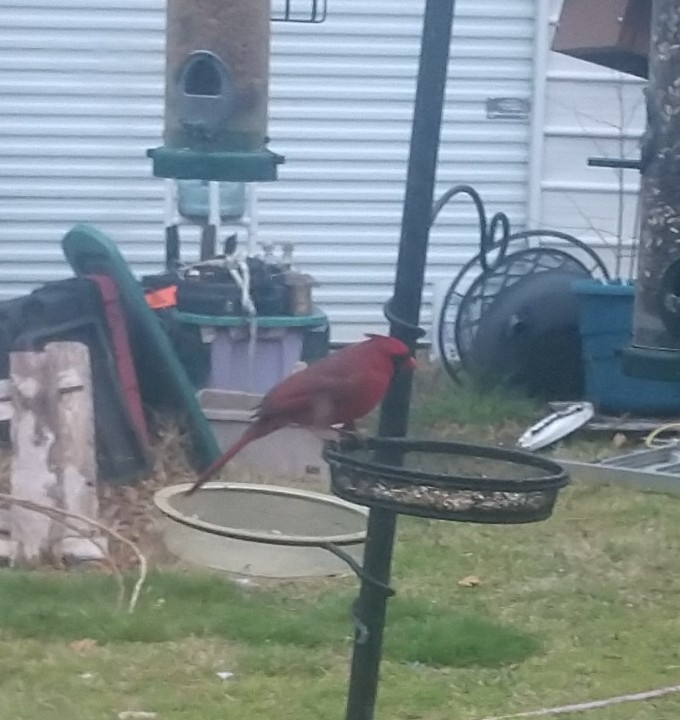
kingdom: Animalia
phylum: Chordata
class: Aves
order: Passeriformes
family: Cardinalidae
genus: Cardinalis
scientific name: Cardinalis cardinalis
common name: Northern cardinal
